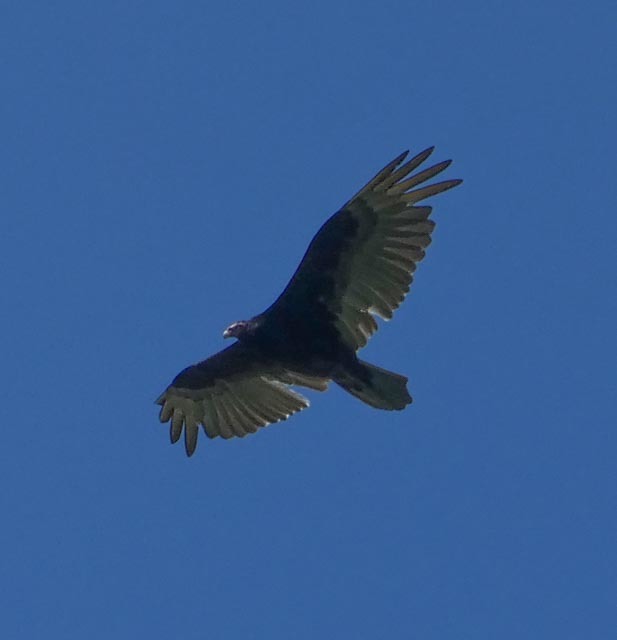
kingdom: Animalia
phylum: Chordata
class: Aves
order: Accipitriformes
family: Cathartidae
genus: Cathartes
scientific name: Cathartes aura
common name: Turkey vulture
